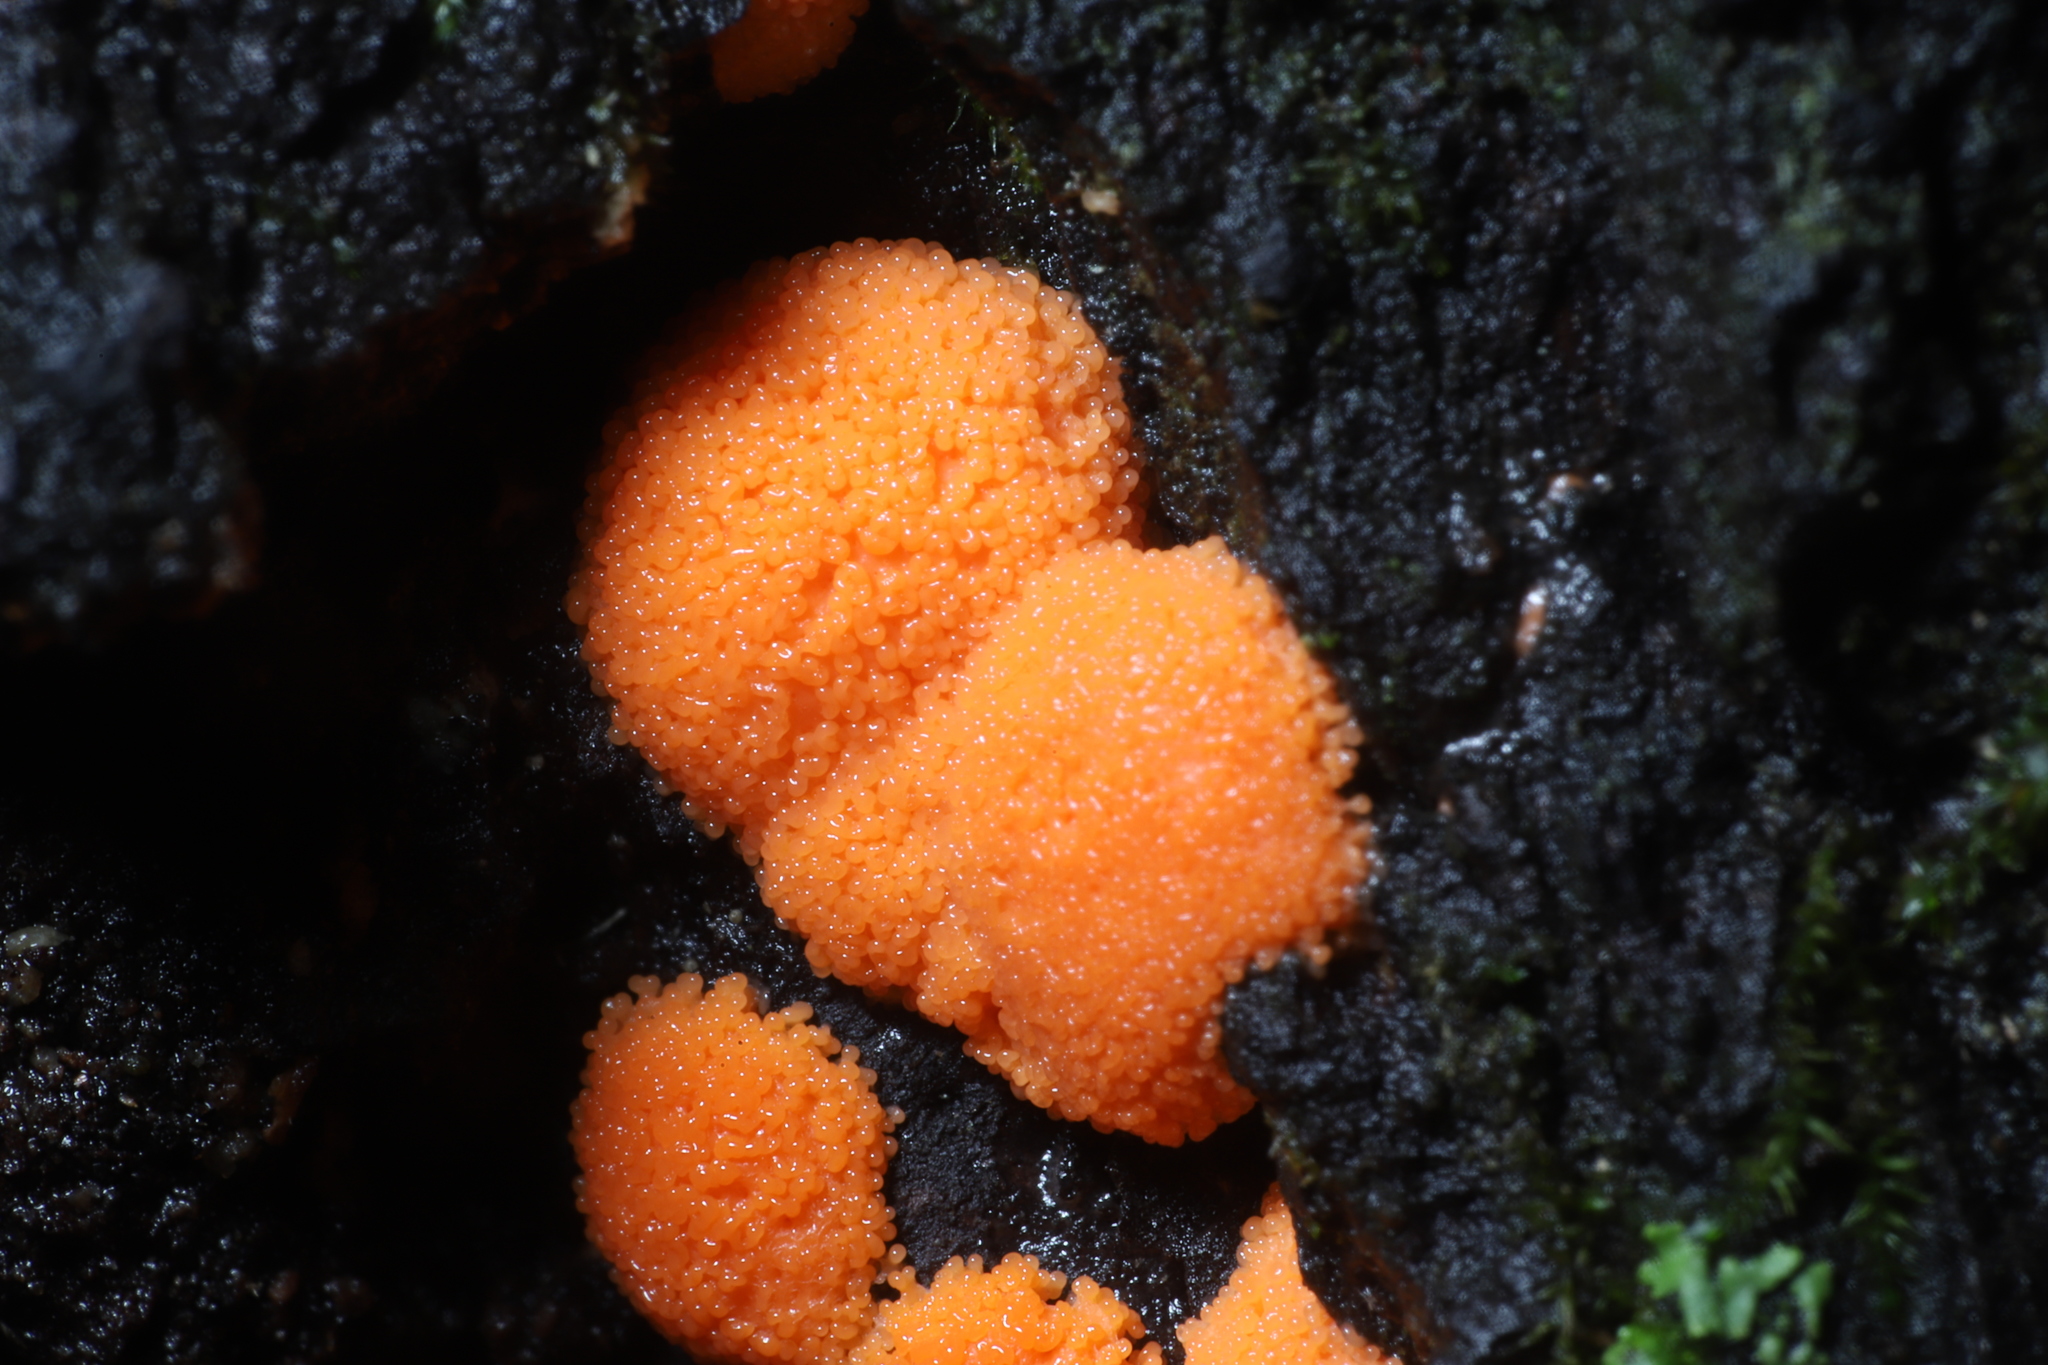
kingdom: Protozoa
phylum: Mycetozoa
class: Myxomycetes
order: Cribrariales
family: Tubiferaceae
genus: Lycogala
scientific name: Lycogala epidendrum
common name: Wolf's milk
